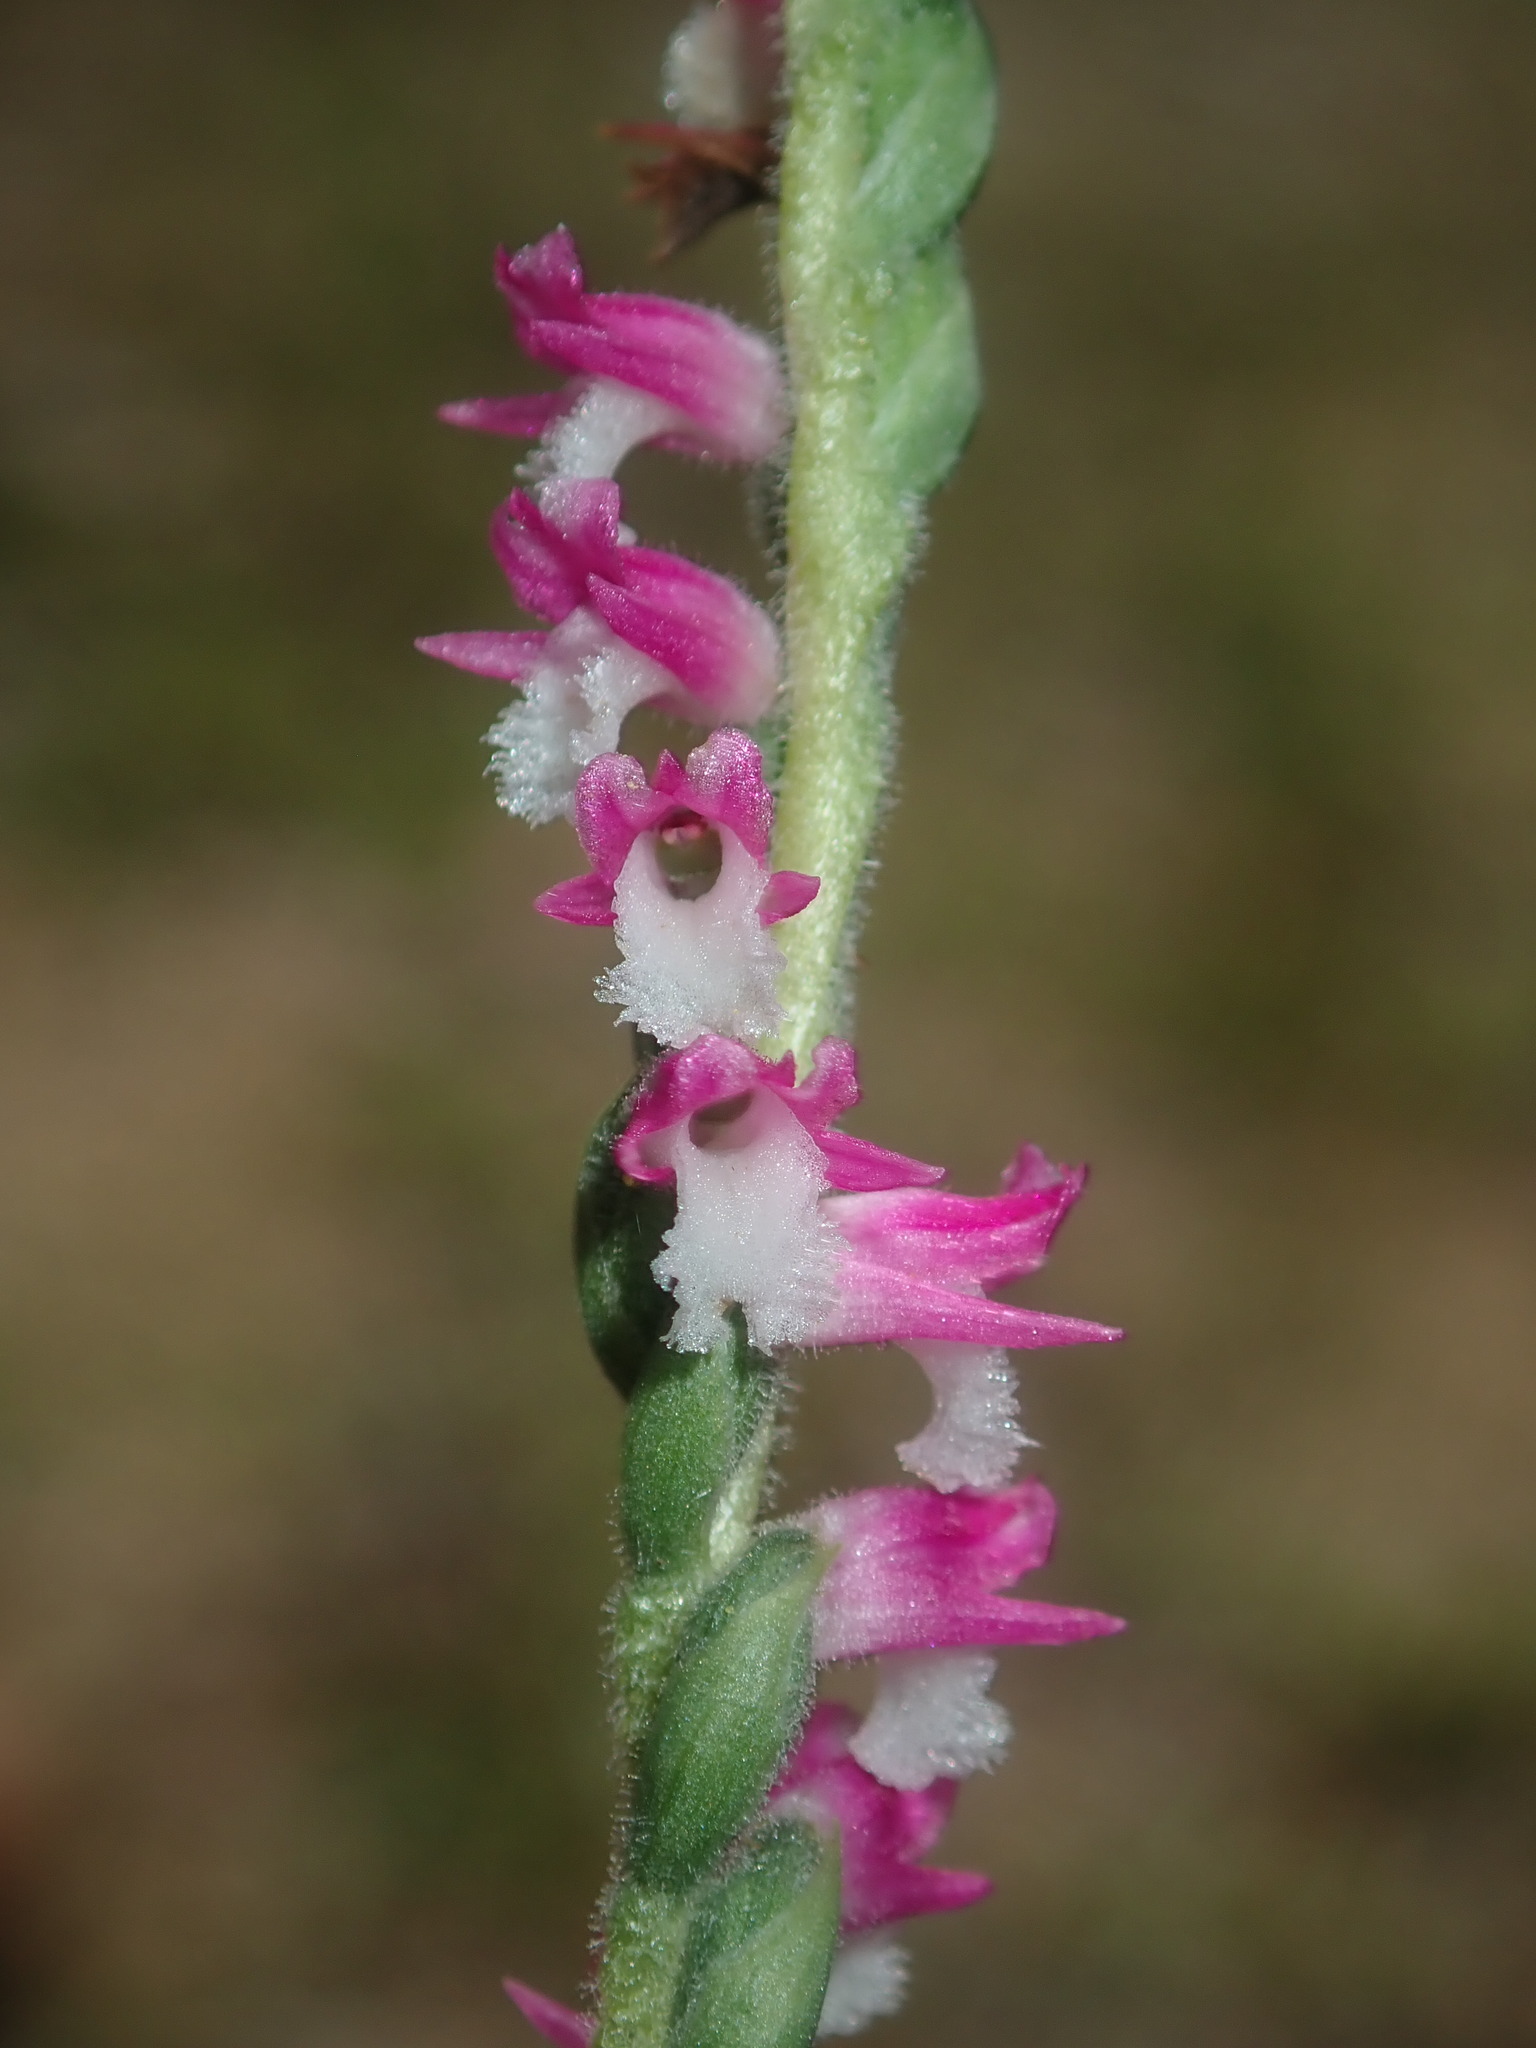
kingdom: Plantae
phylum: Tracheophyta
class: Liliopsida
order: Asparagales
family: Orchidaceae
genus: Spiranthes
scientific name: Spiranthes australis
